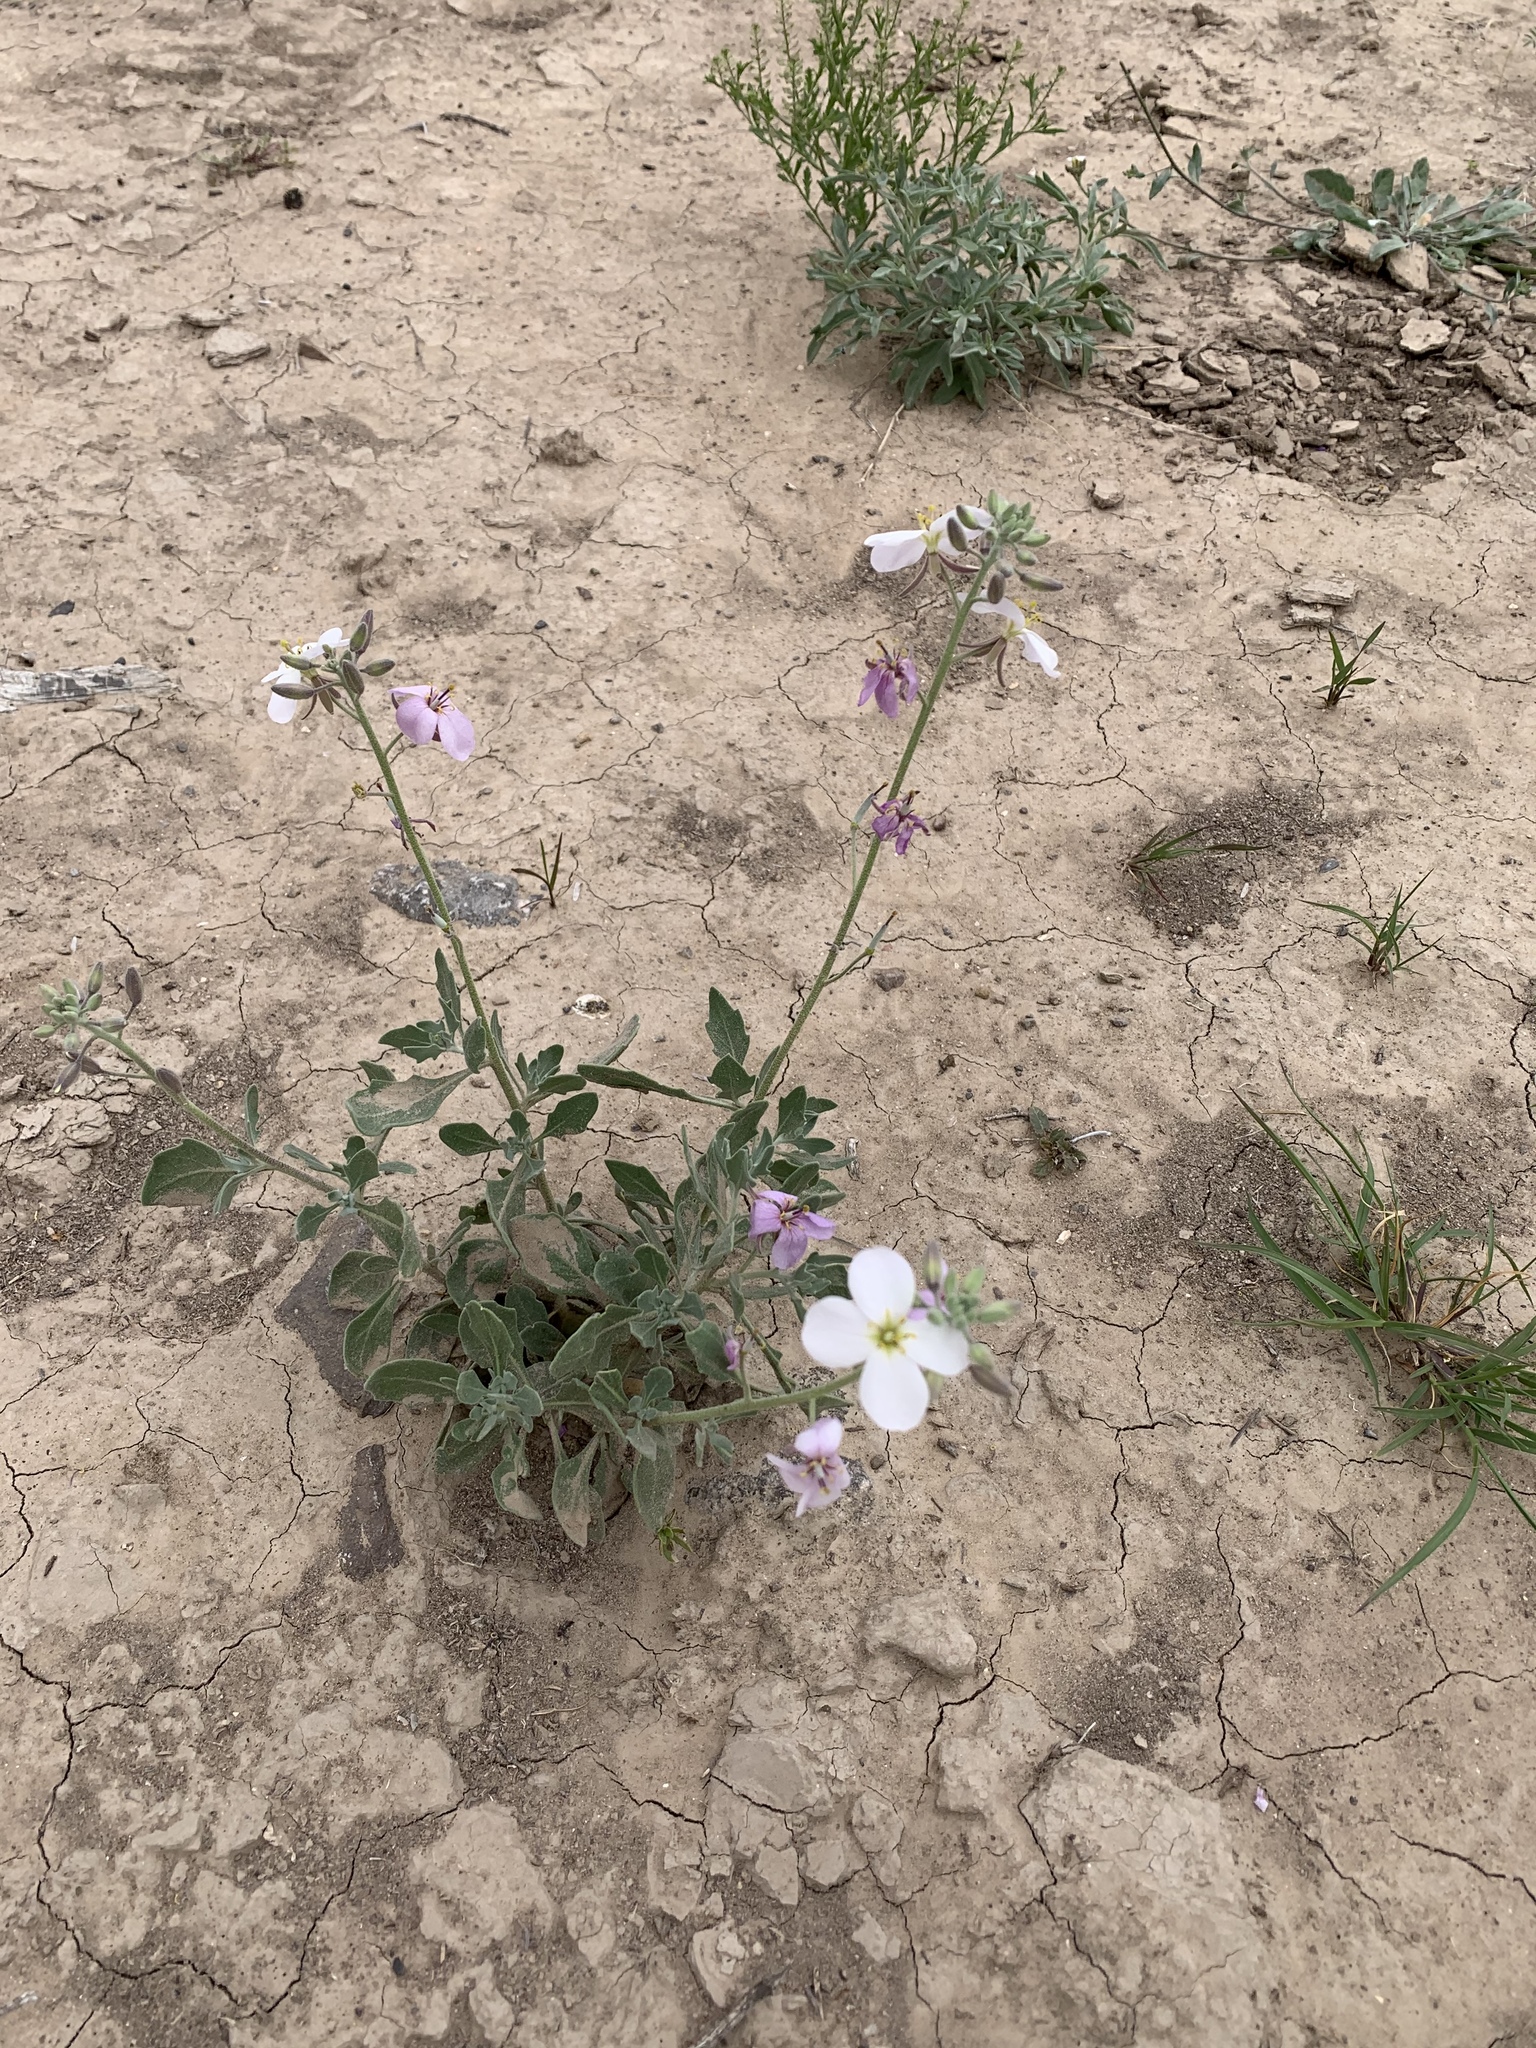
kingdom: Plantae
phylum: Tracheophyta
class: Magnoliopsida
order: Brassicales
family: Brassicaceae
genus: Nerisyrenia
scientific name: Nerisyrenia camporum
